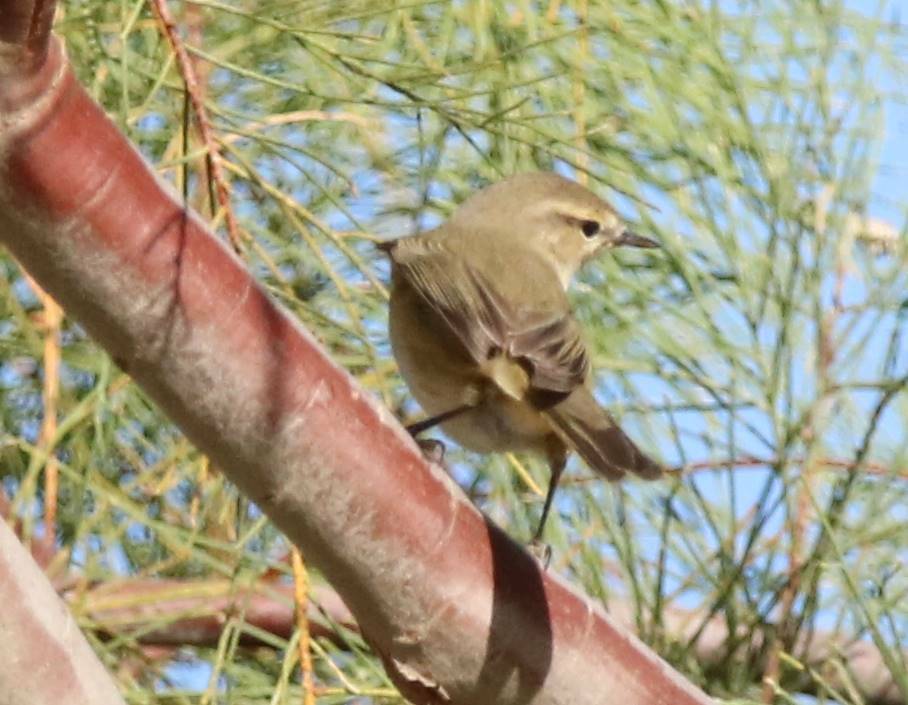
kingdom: Animalia
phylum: Chordata
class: Aves
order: Passeriformes
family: Phylloscopidae
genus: Phylloscopus
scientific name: Phylloscopus collybita
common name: Common chiffchaff
